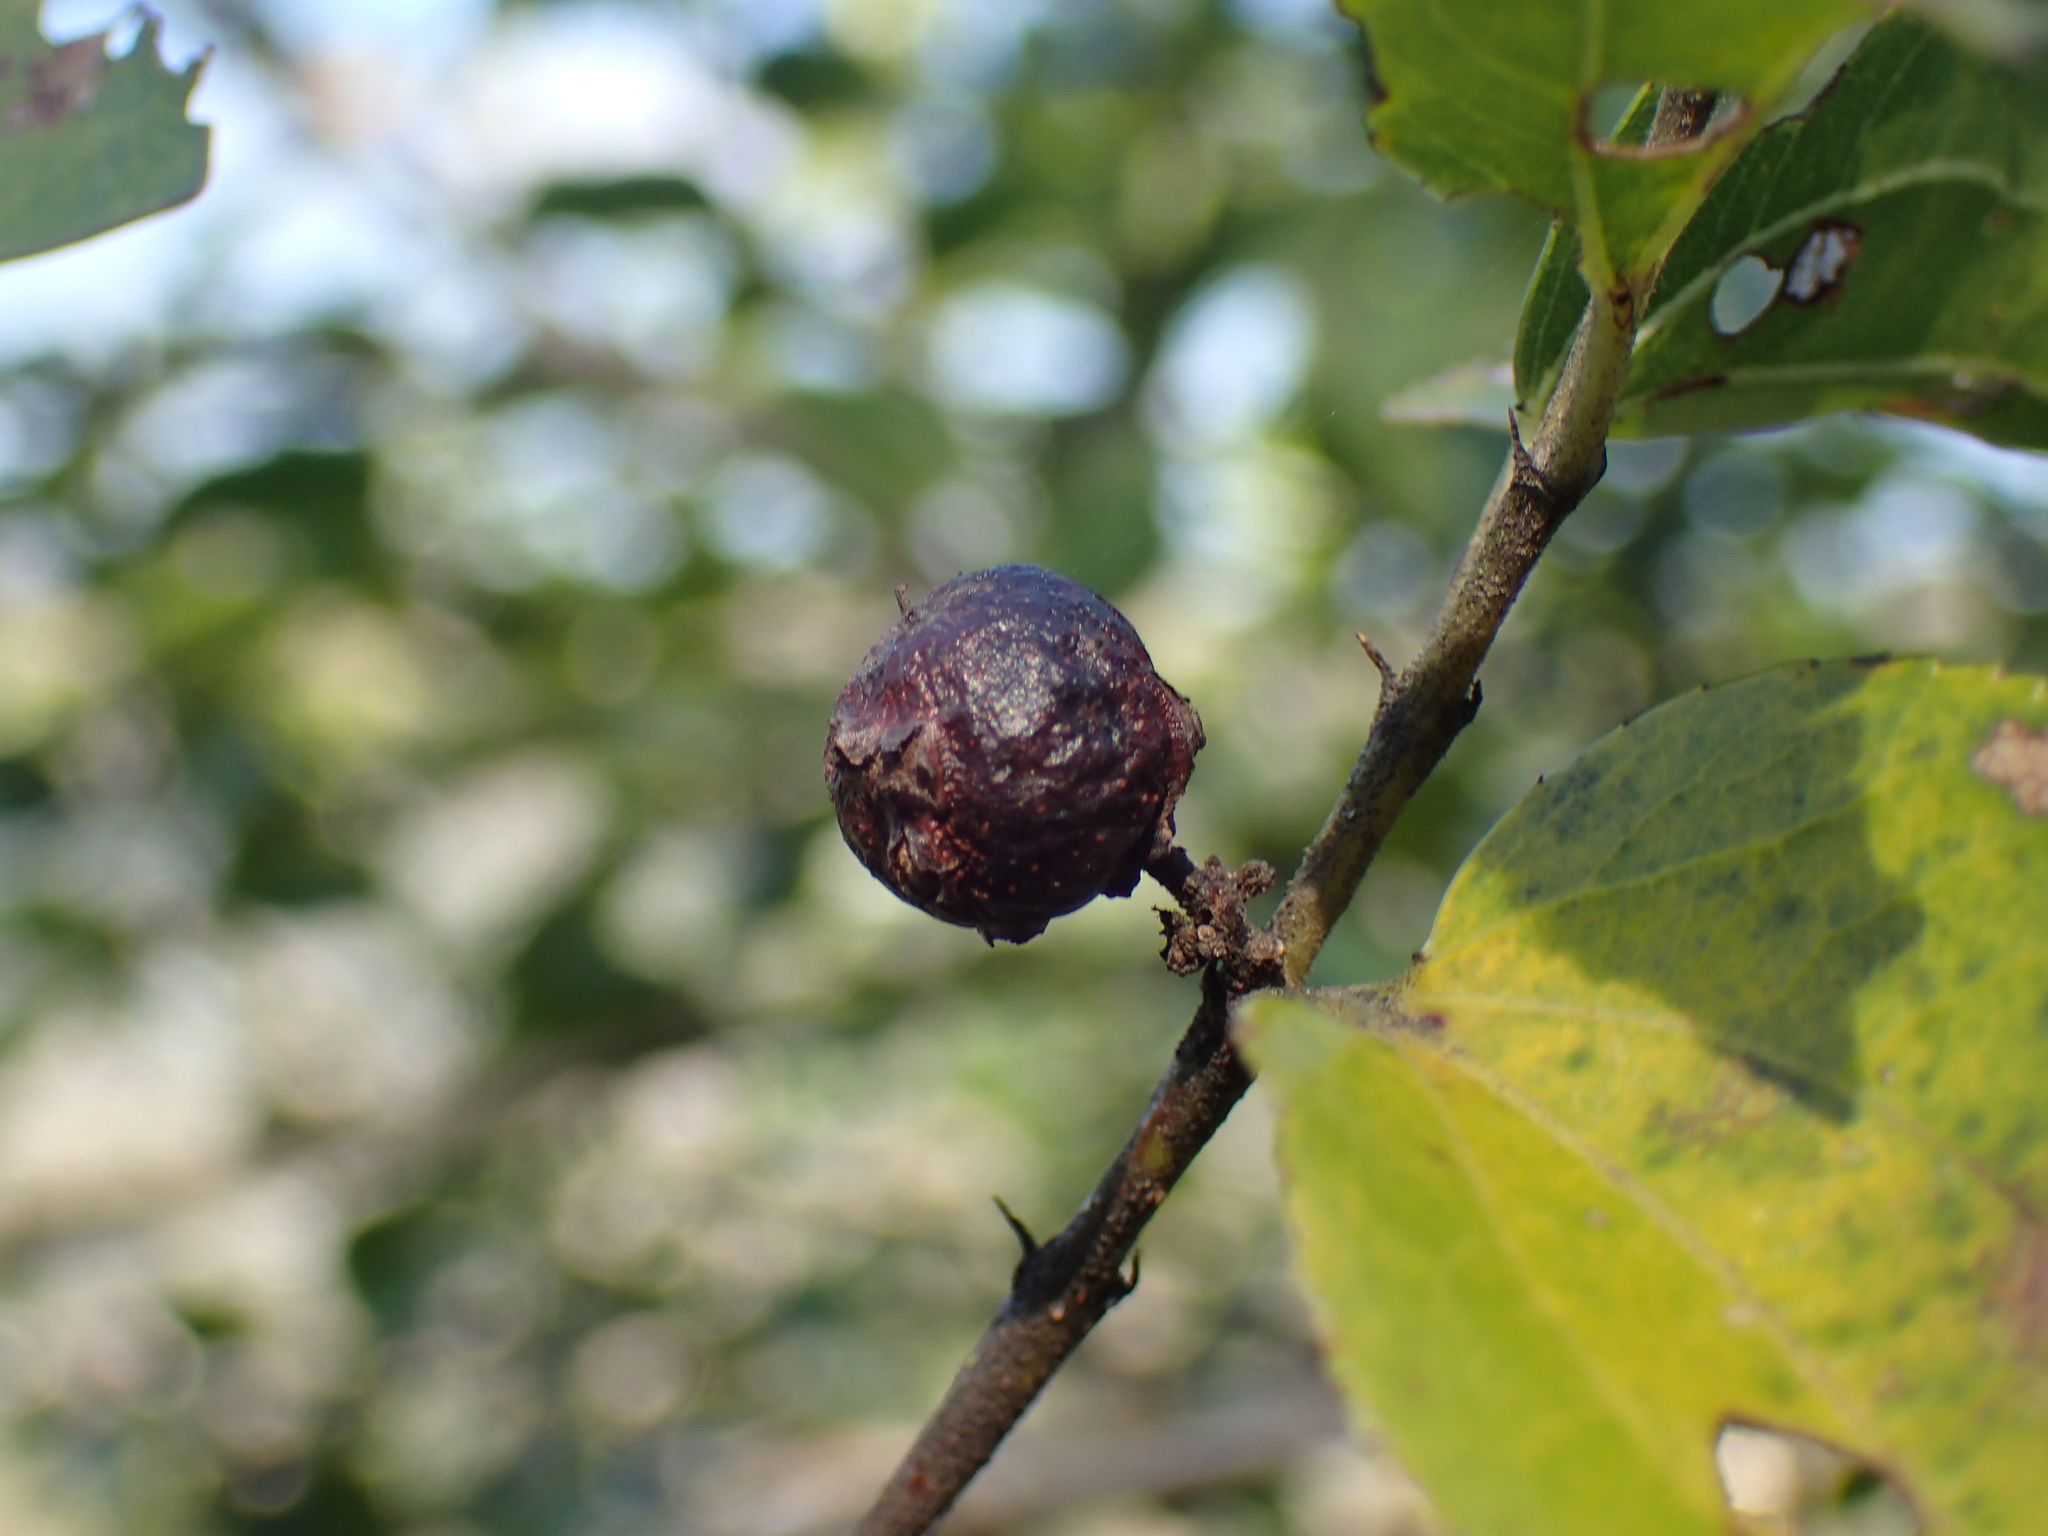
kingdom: Plantae
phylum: Tracheophyta
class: Magnoliopsida
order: Rosales
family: Rhamnaceae
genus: Ziziphus
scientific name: Ziziphus mucronata
